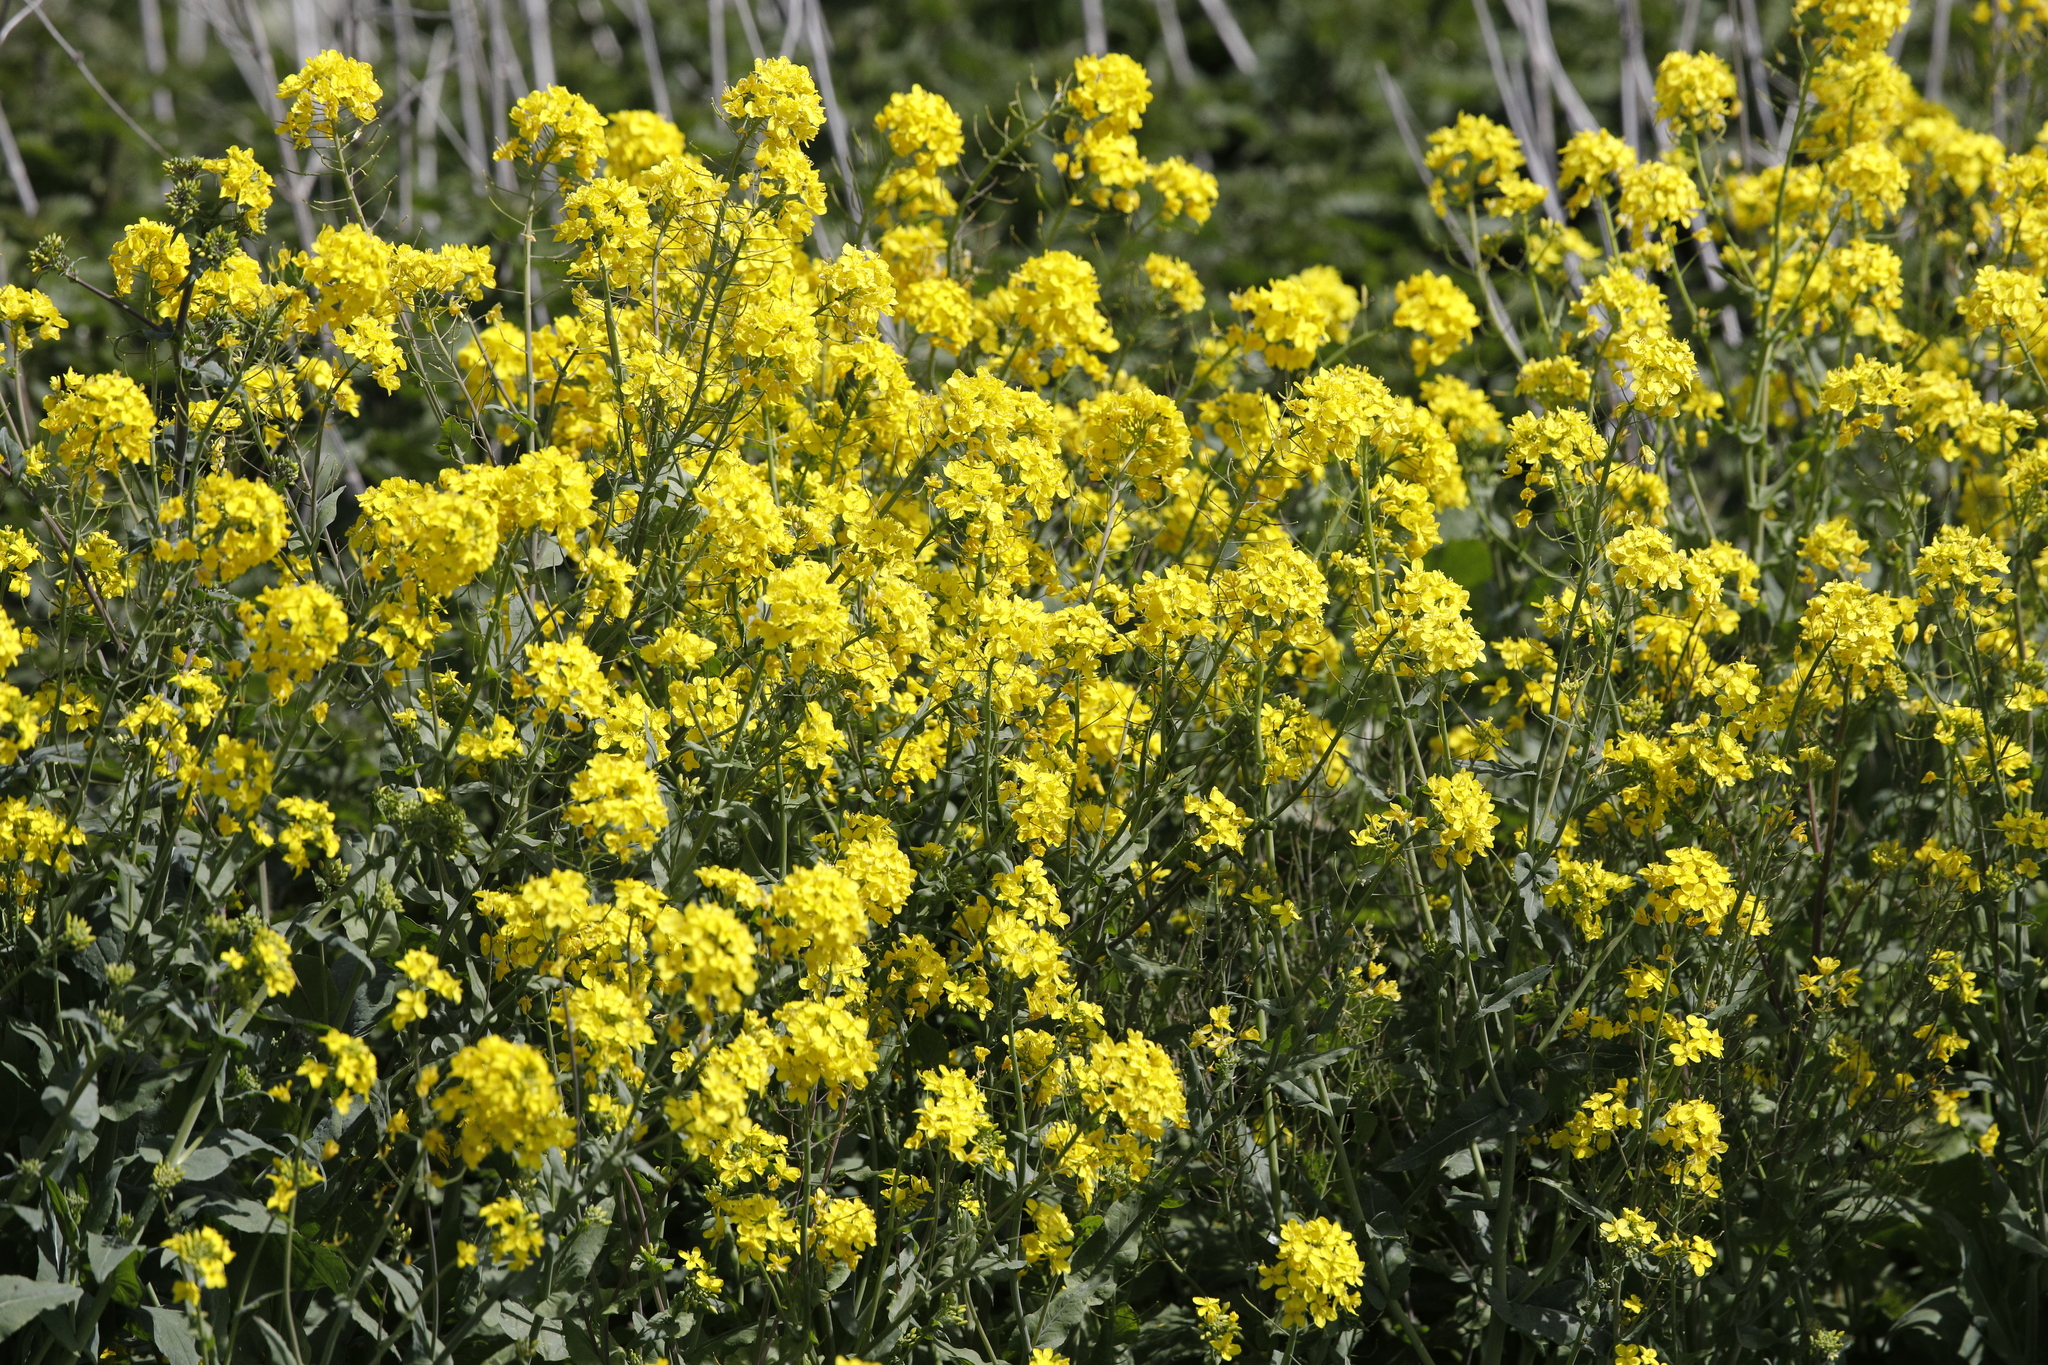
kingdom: Plantae
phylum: Tracheophyta
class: Magnoliopsida
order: Brassicales
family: Brassicaceae
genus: Brassica
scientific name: Brassica rapa
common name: Field mustard
